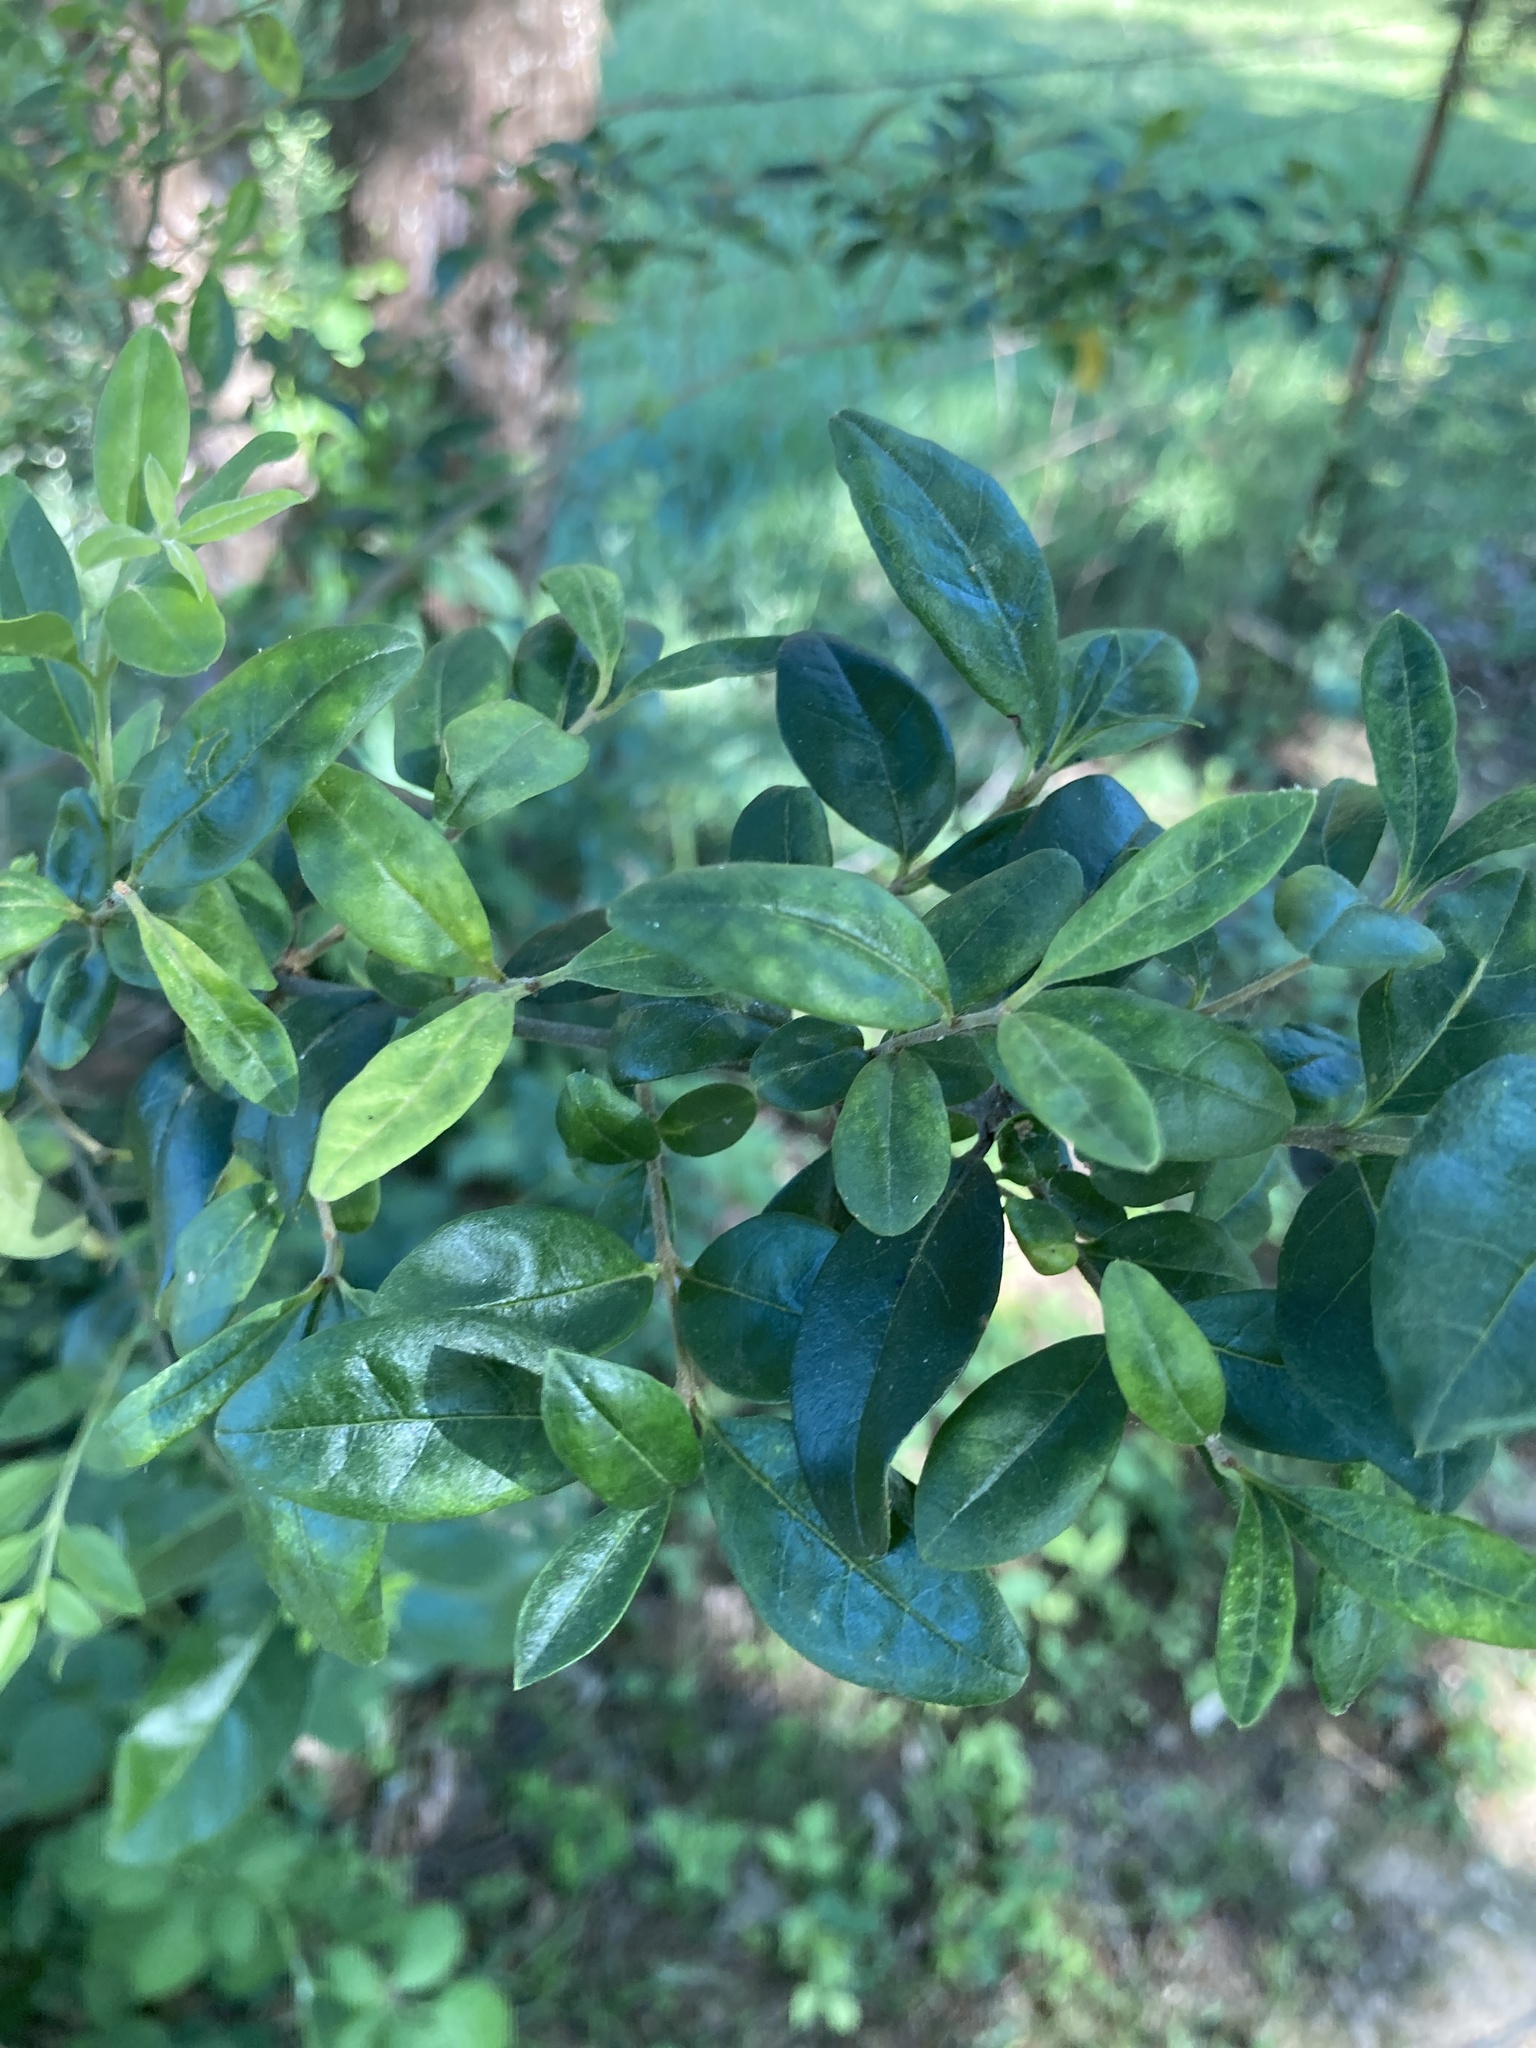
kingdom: Plantae
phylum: Tracheophyta
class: Magnoliopsida
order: Lamiales
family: Oleaceae
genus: Ligustrum
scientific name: Ligustrum sinense
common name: Chinese privet
